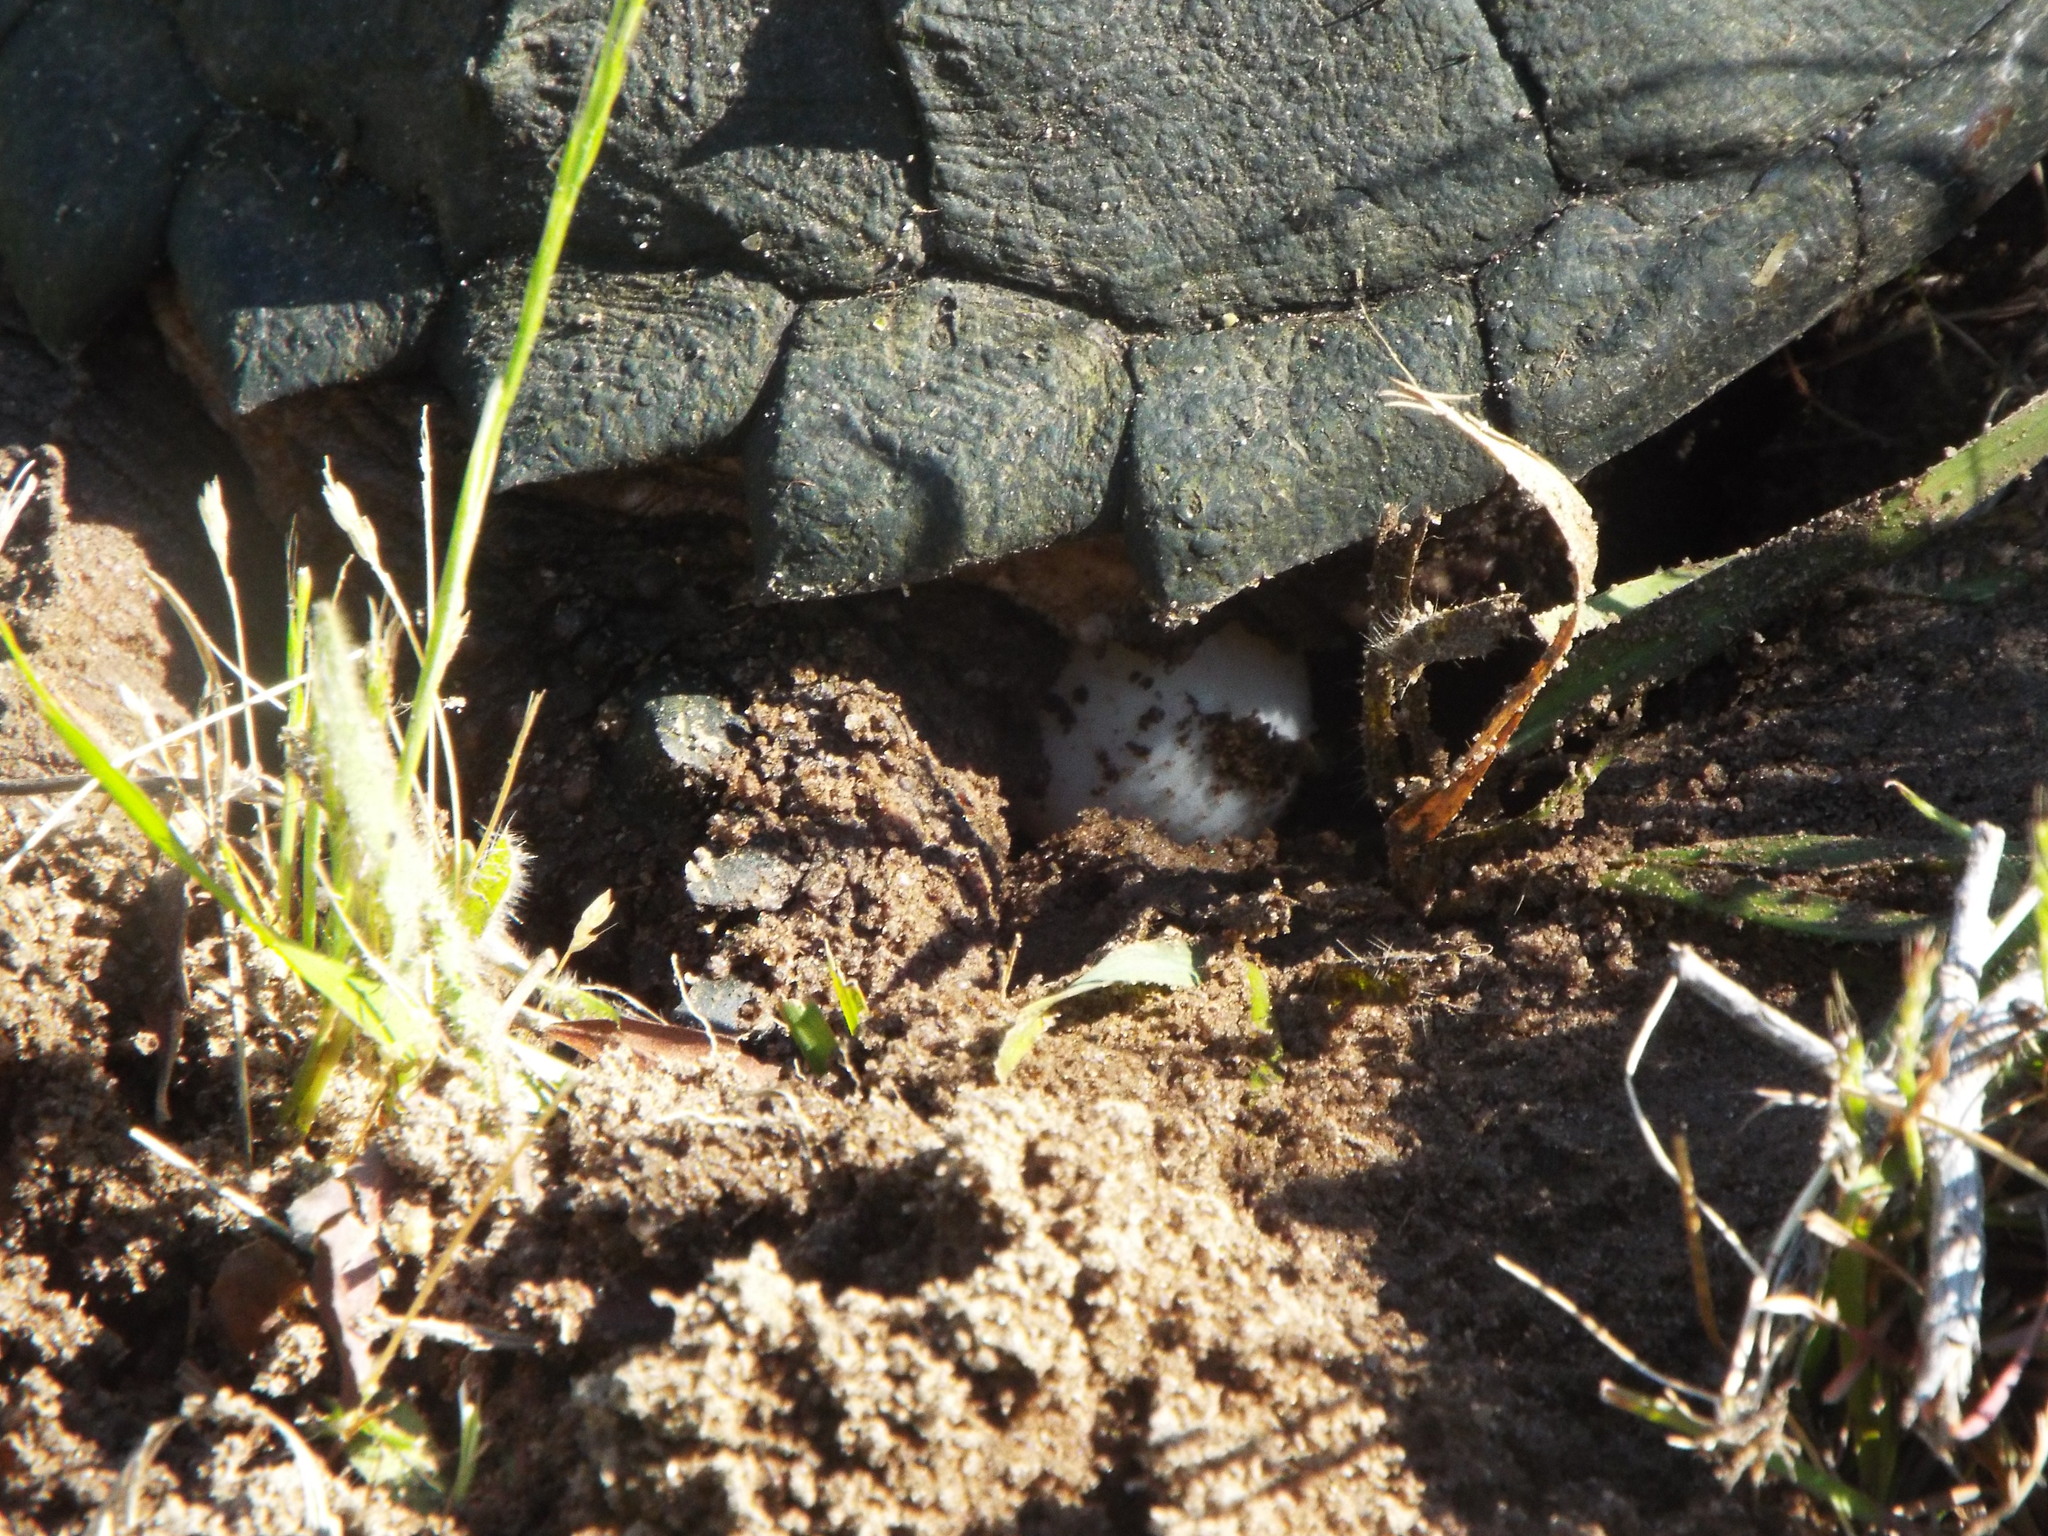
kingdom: Animalia
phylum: Chordata
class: Testudines
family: Chelydridae
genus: Chelydra
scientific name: Chelydra serpentina
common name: Common snapping turtle
